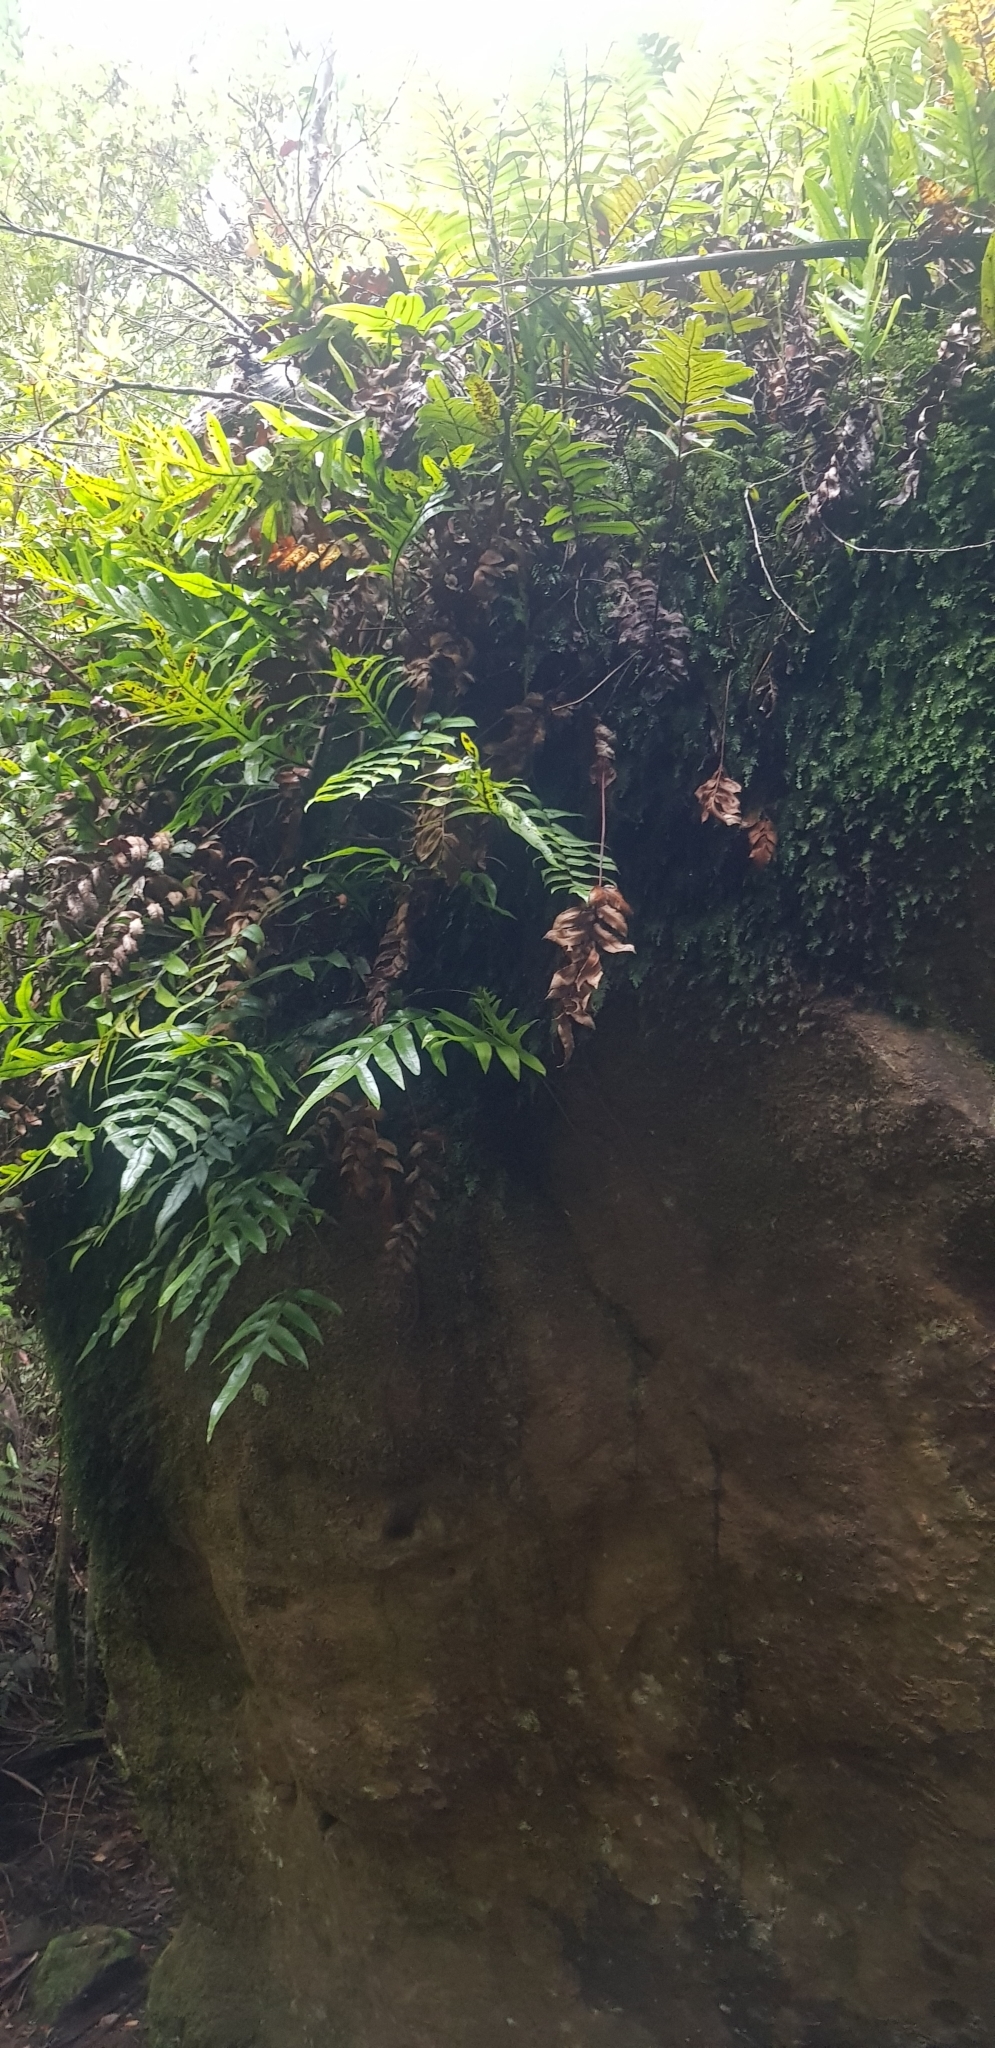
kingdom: Plantae
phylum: Tracheophyta
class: Polypodiopsida
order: Polypodiales
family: Blechnaceae
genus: Parablechnum
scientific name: Parablechnum wattsii
